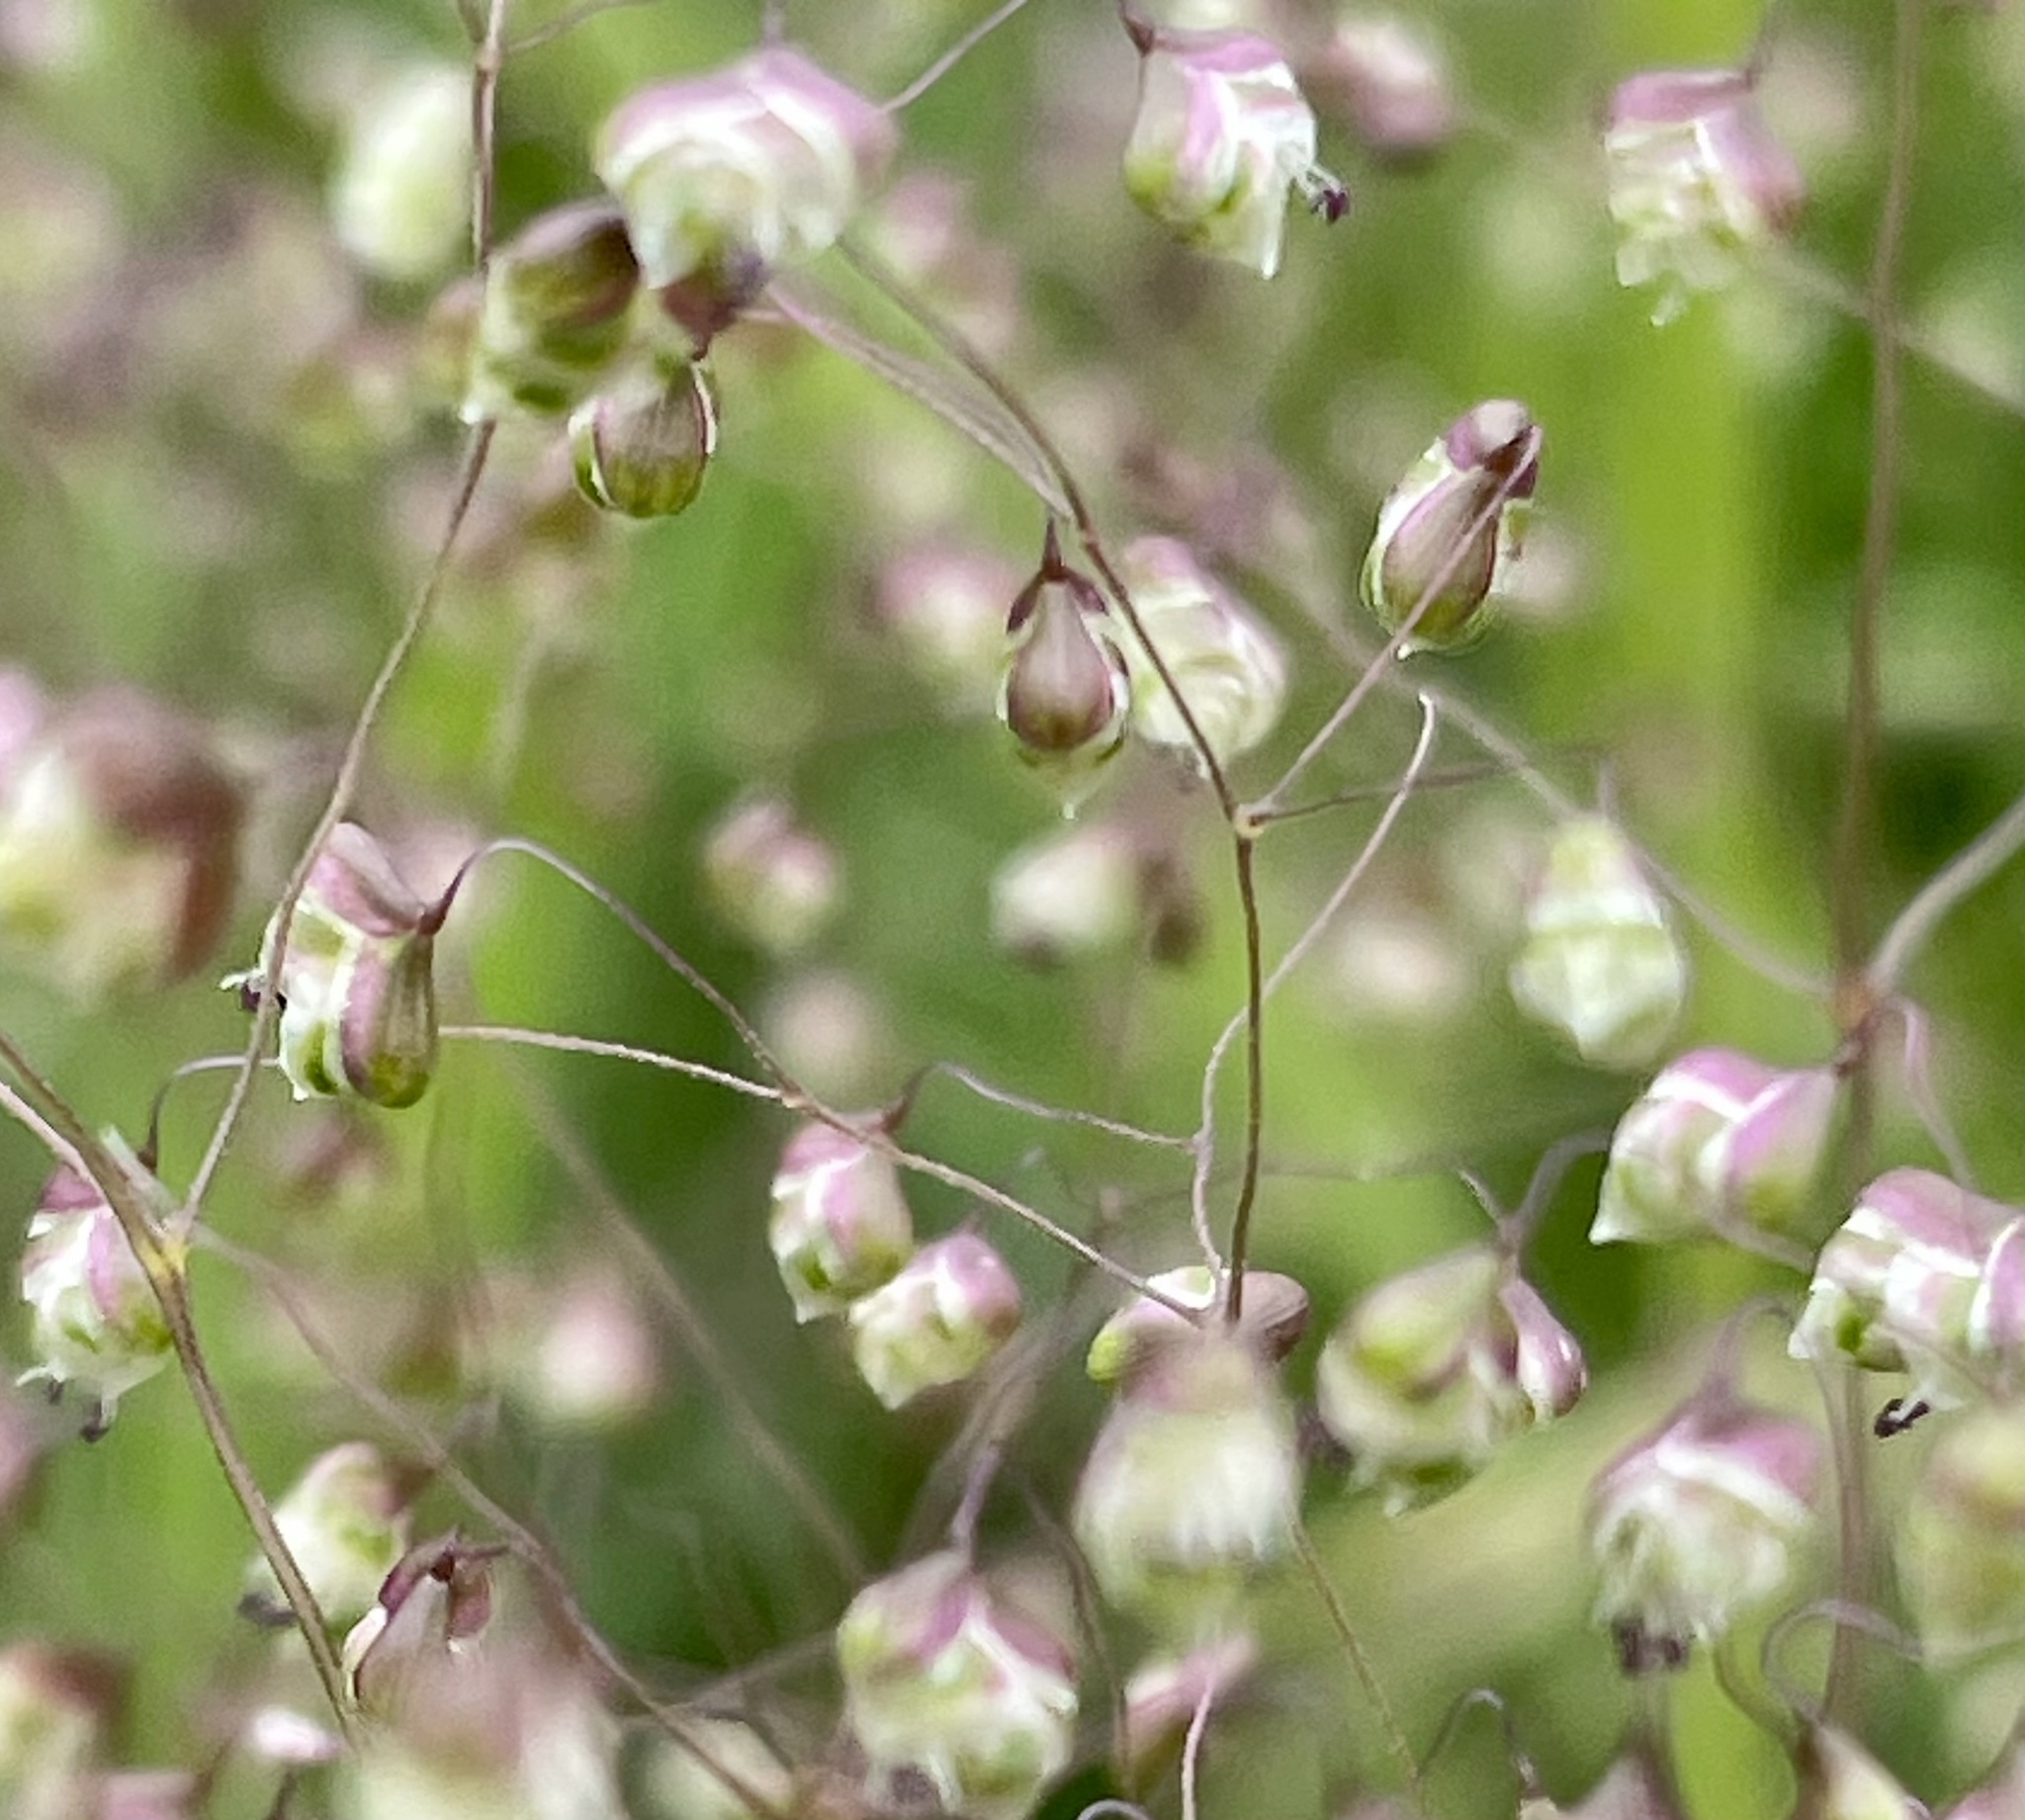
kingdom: Plantae
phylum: Tracheophyta
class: Liliopsida
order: Poales
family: Poaceae
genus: Briza
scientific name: Briza minor
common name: Lesser quaking-grass
